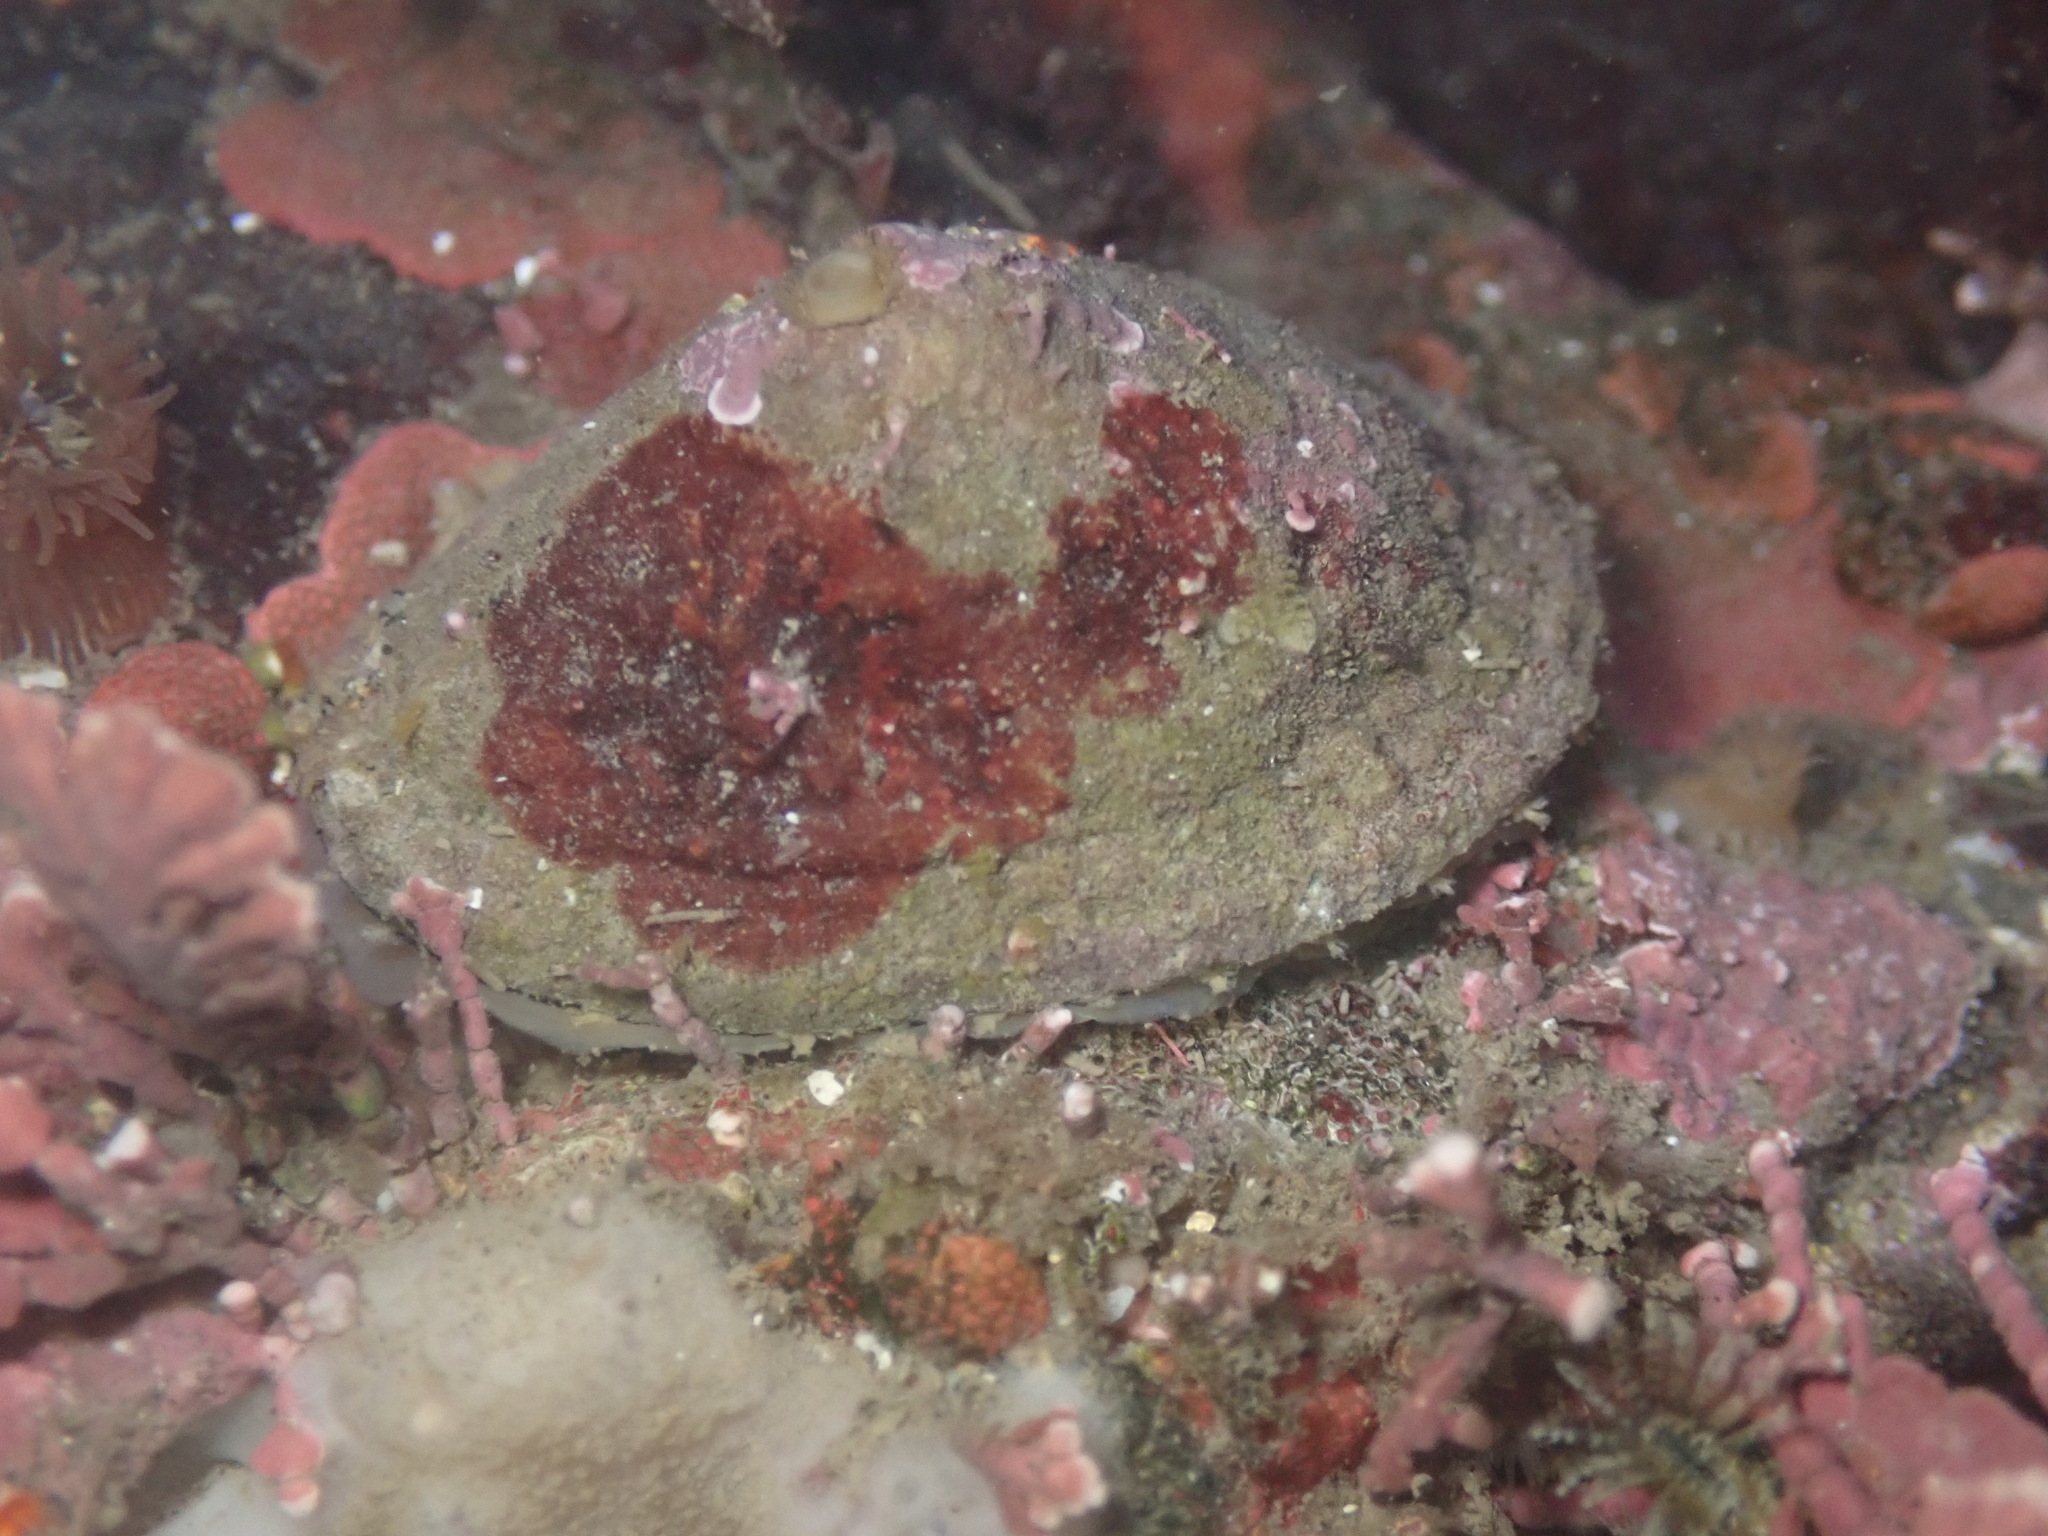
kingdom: Animalia
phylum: Mollusca
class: Gastropoda
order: Lepetellida
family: Fissurellidae
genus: Diodora
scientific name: Diodora aspera
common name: Rough keyhole limpet
